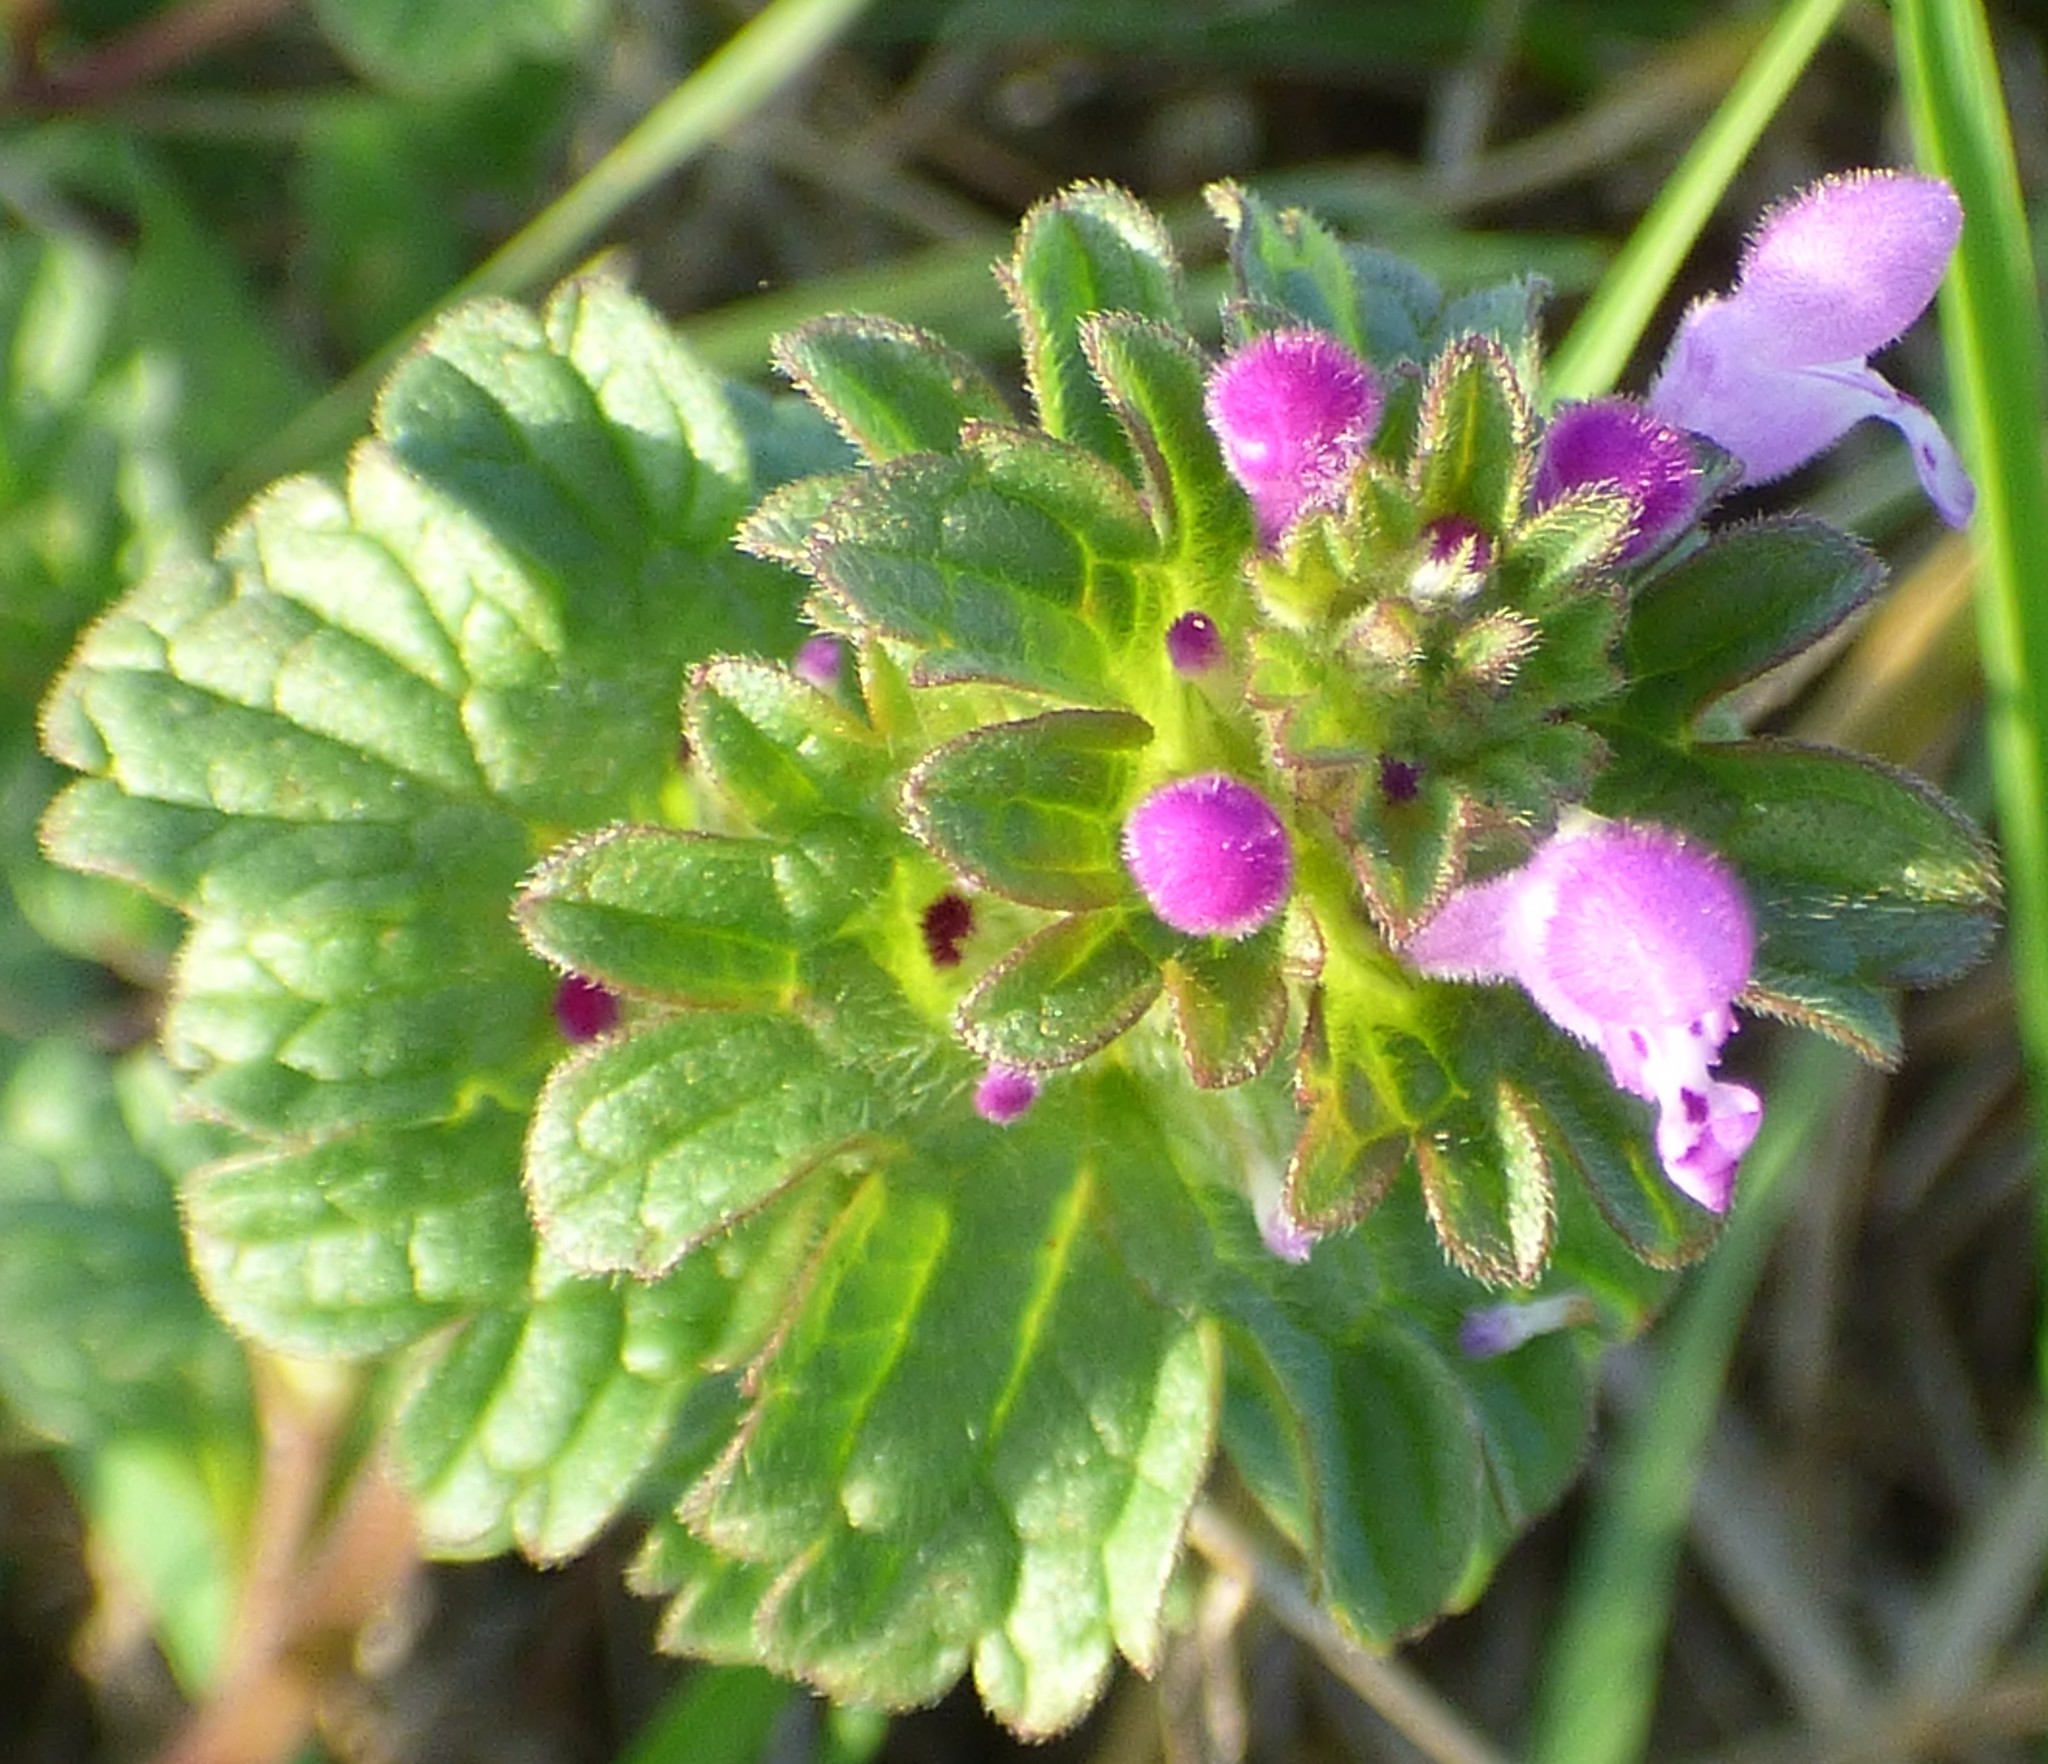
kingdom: Plantae
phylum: Tracheophyta
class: Magnoliopsida
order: Lamiales
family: Lamiaceae
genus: Lamium
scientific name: Lamium amplexicaule
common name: Henbit dead-nettle
